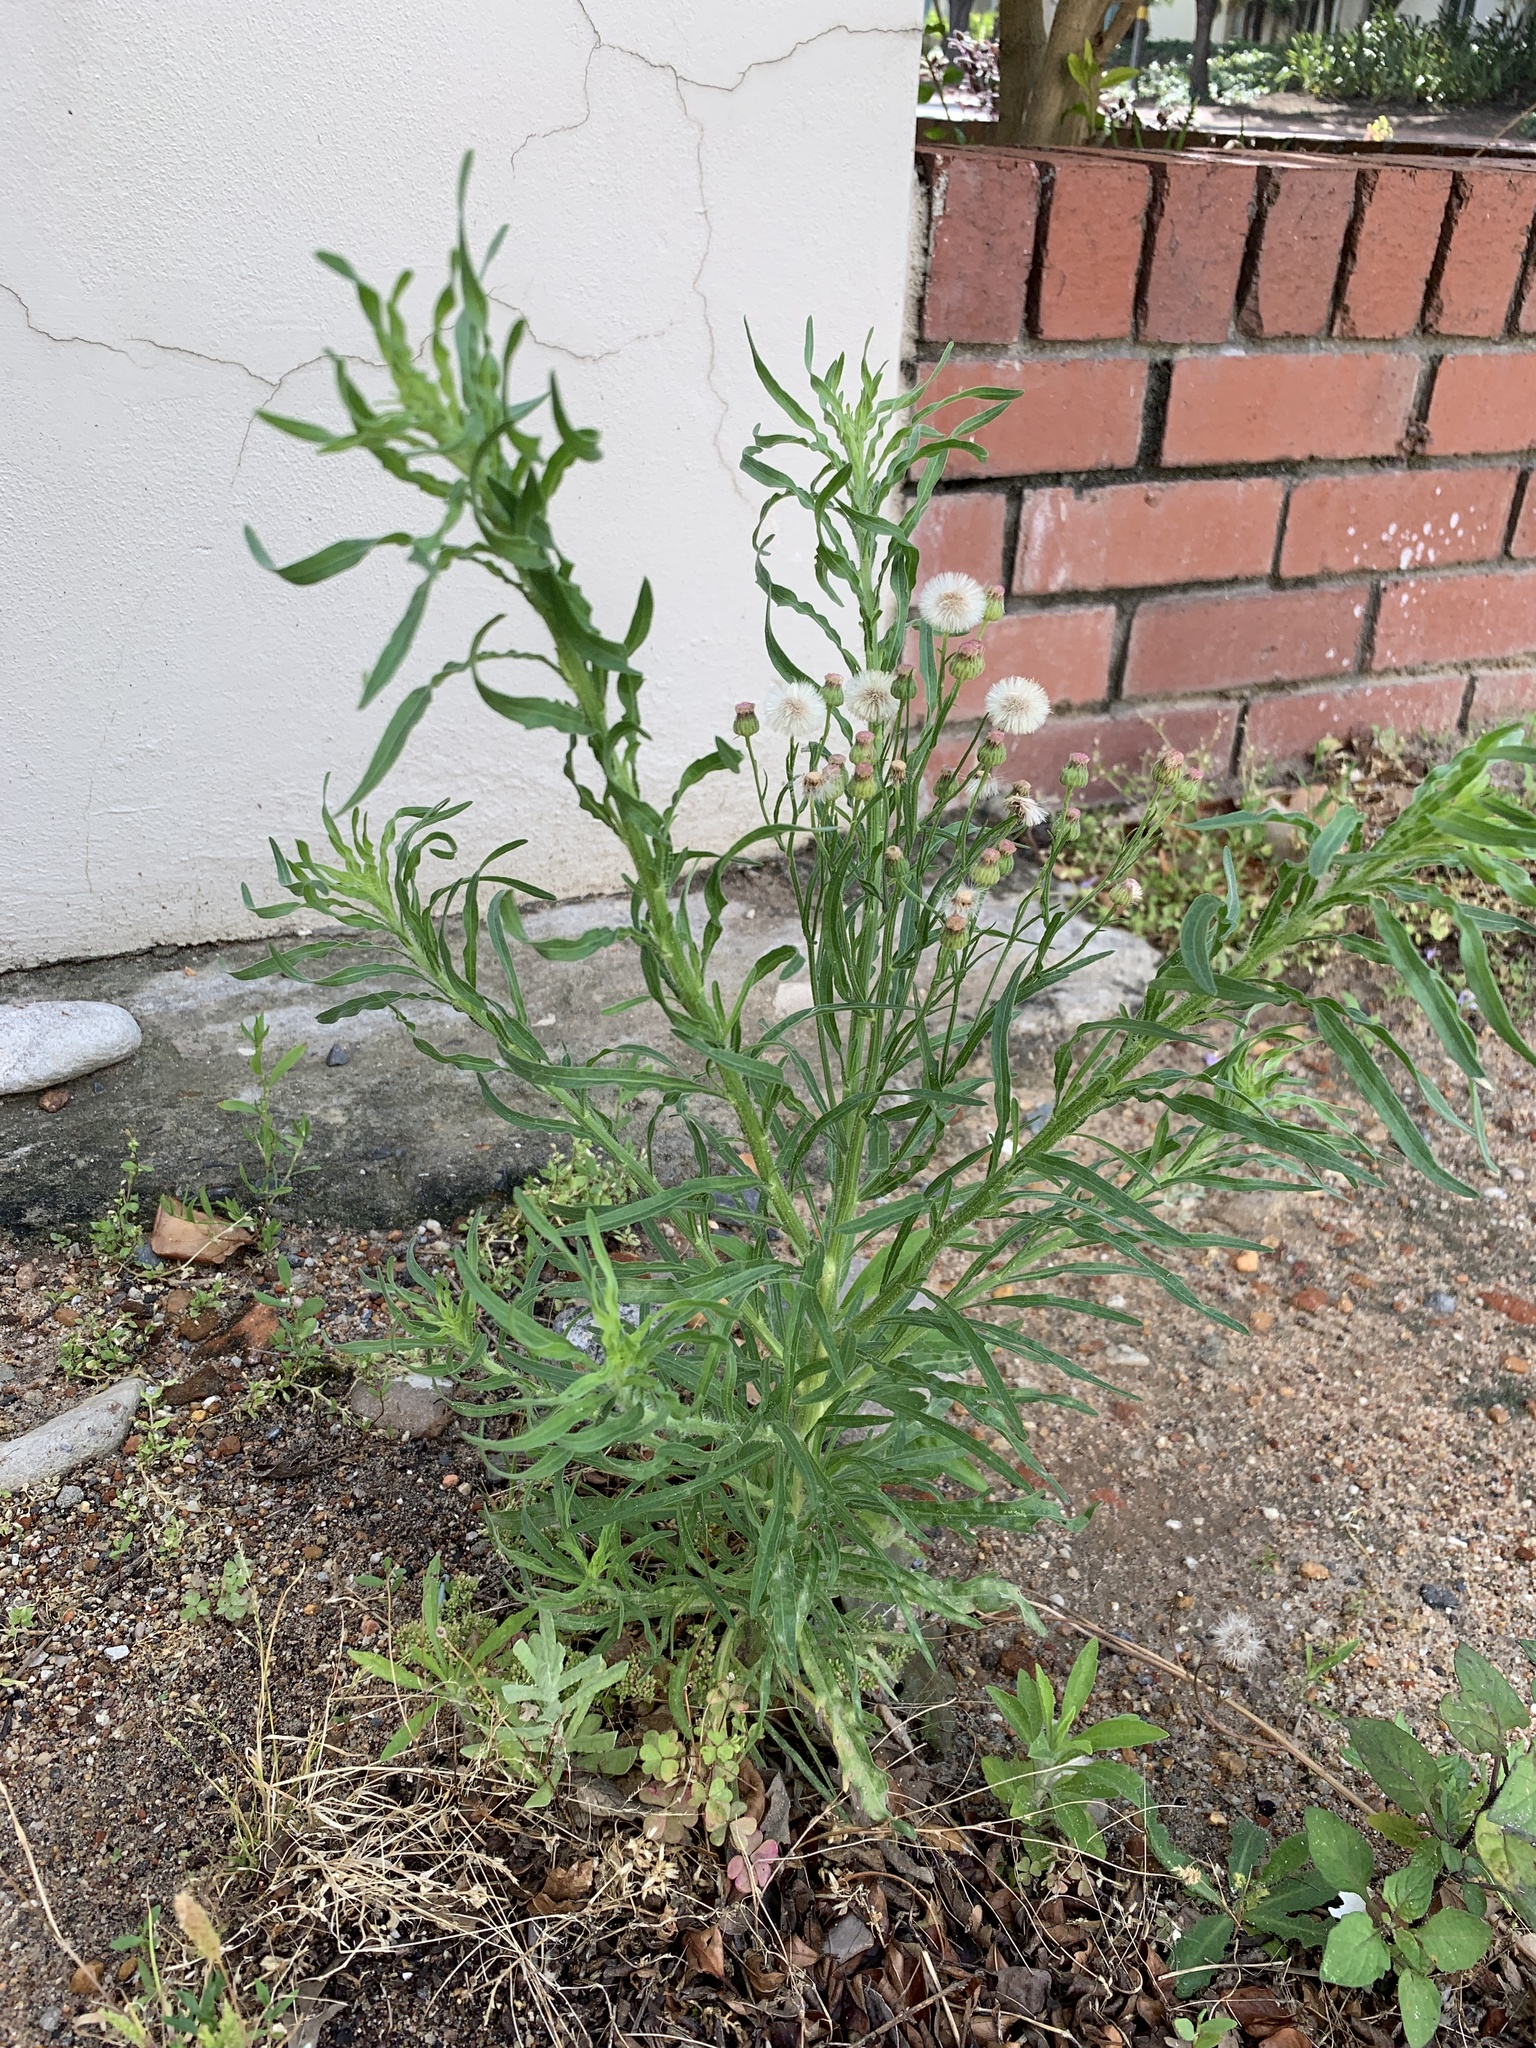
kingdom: Plantae
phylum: Tracheophyta
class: Magnoliopsida
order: Asterales
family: Asteraceae
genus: Erigeron
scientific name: Erigeron bonariensis
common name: Argentine fleabane
